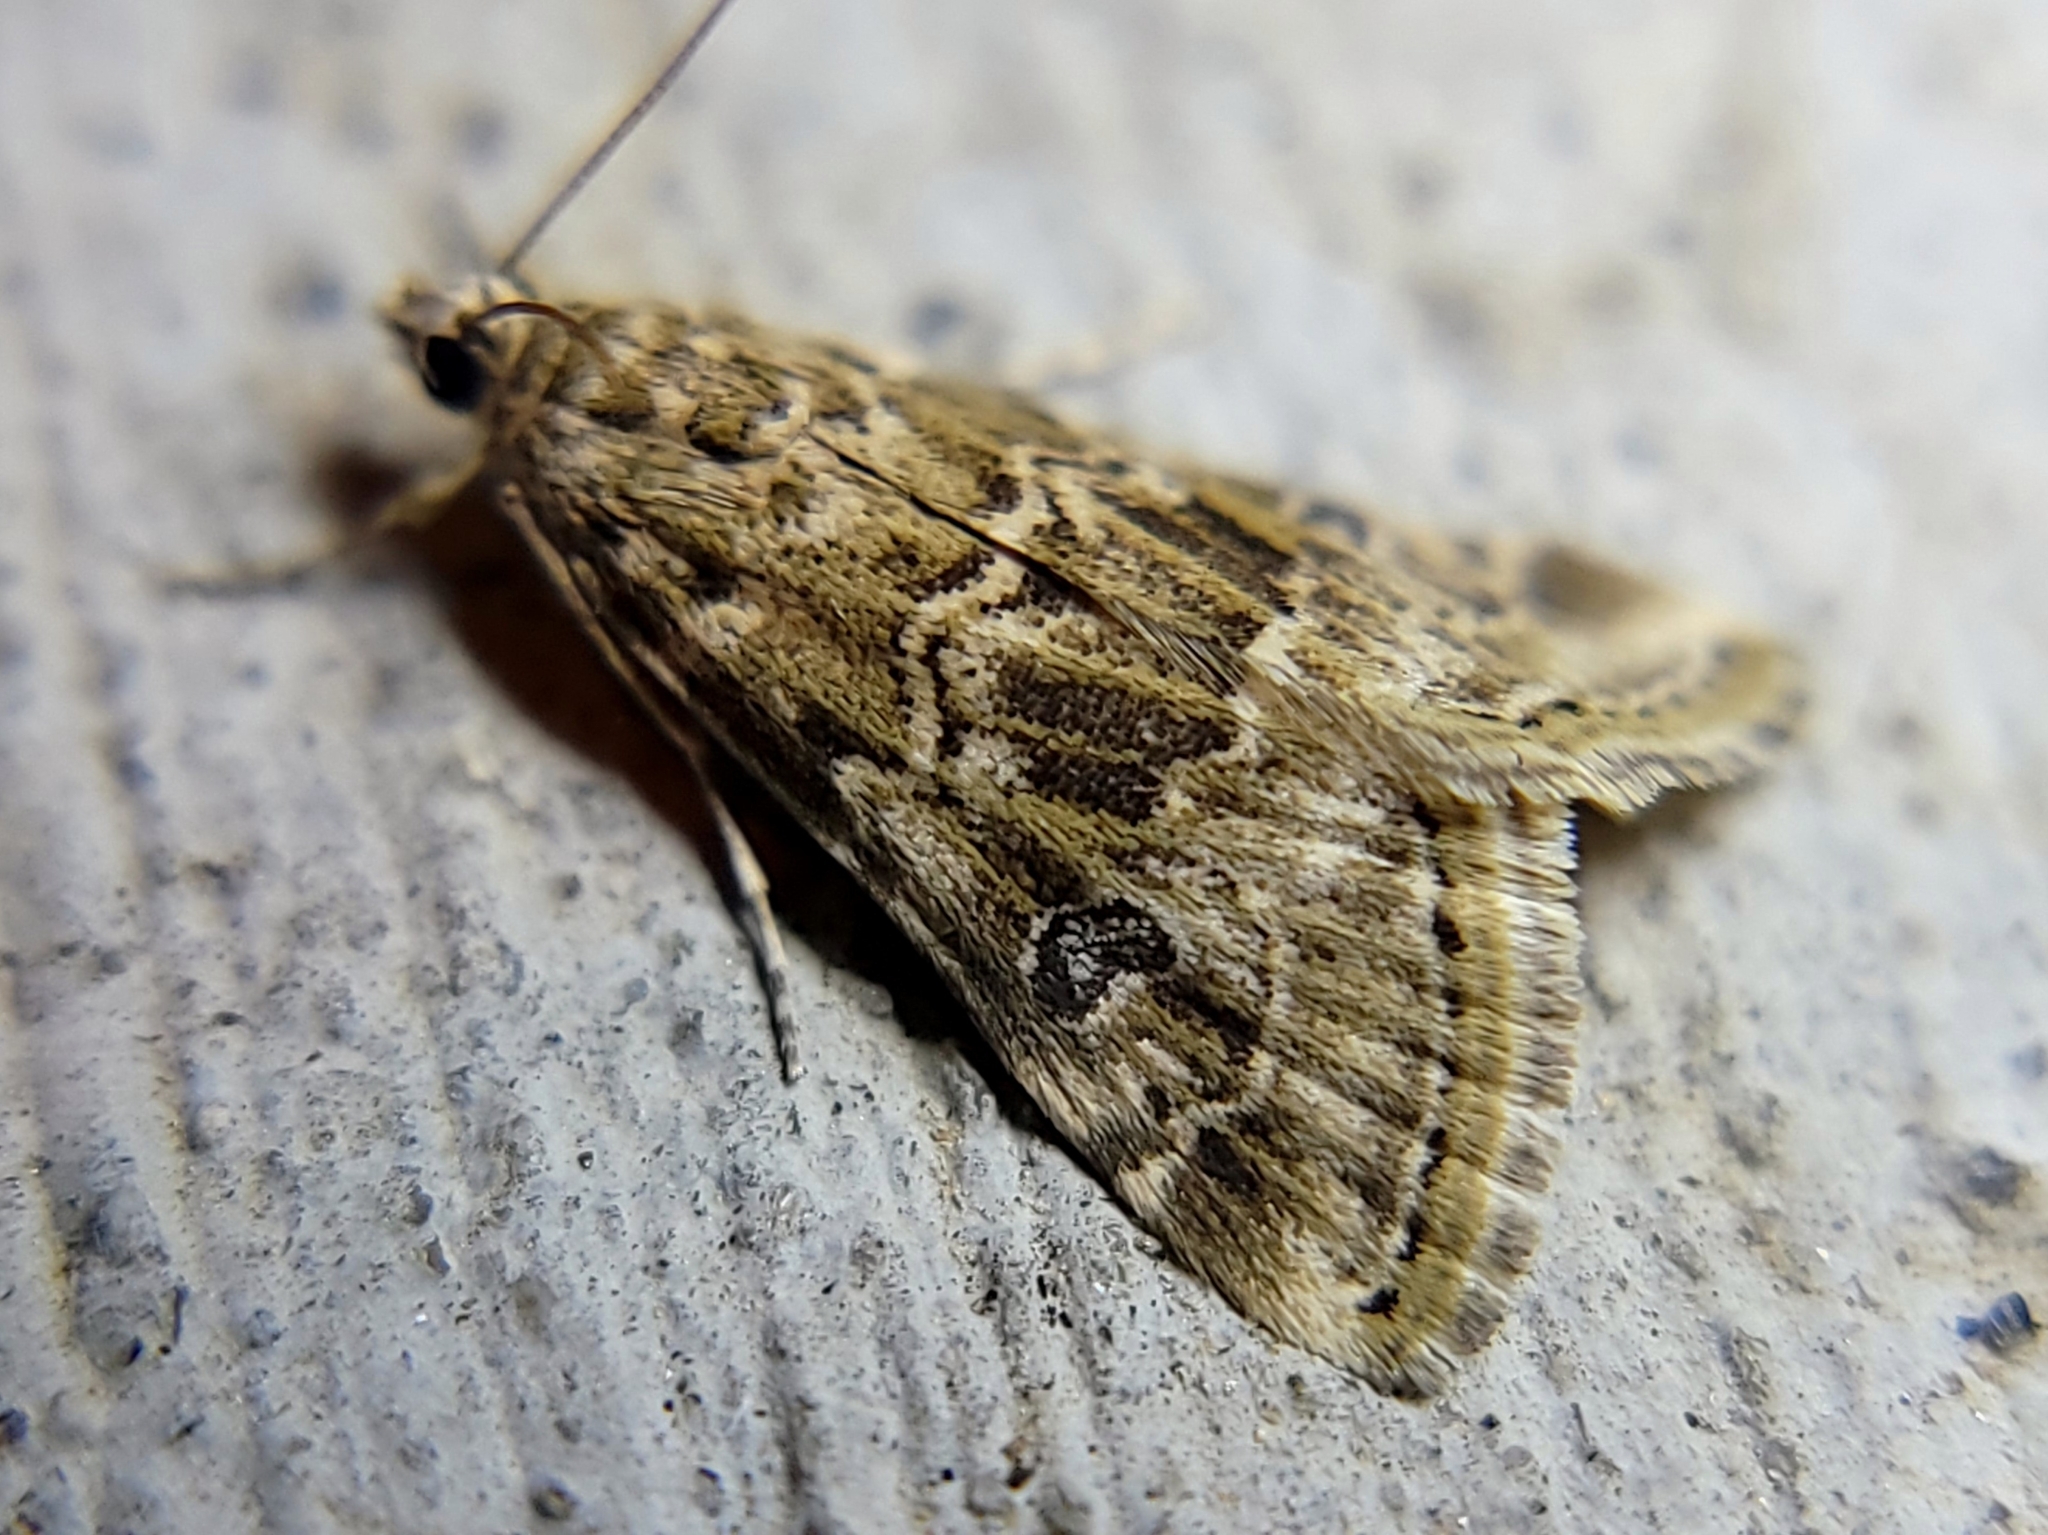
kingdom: Animalia
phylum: Arthropoda
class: Insecta
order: Lepidoptera
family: Crambidae
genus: Hellula
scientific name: Hellula rogatalis
